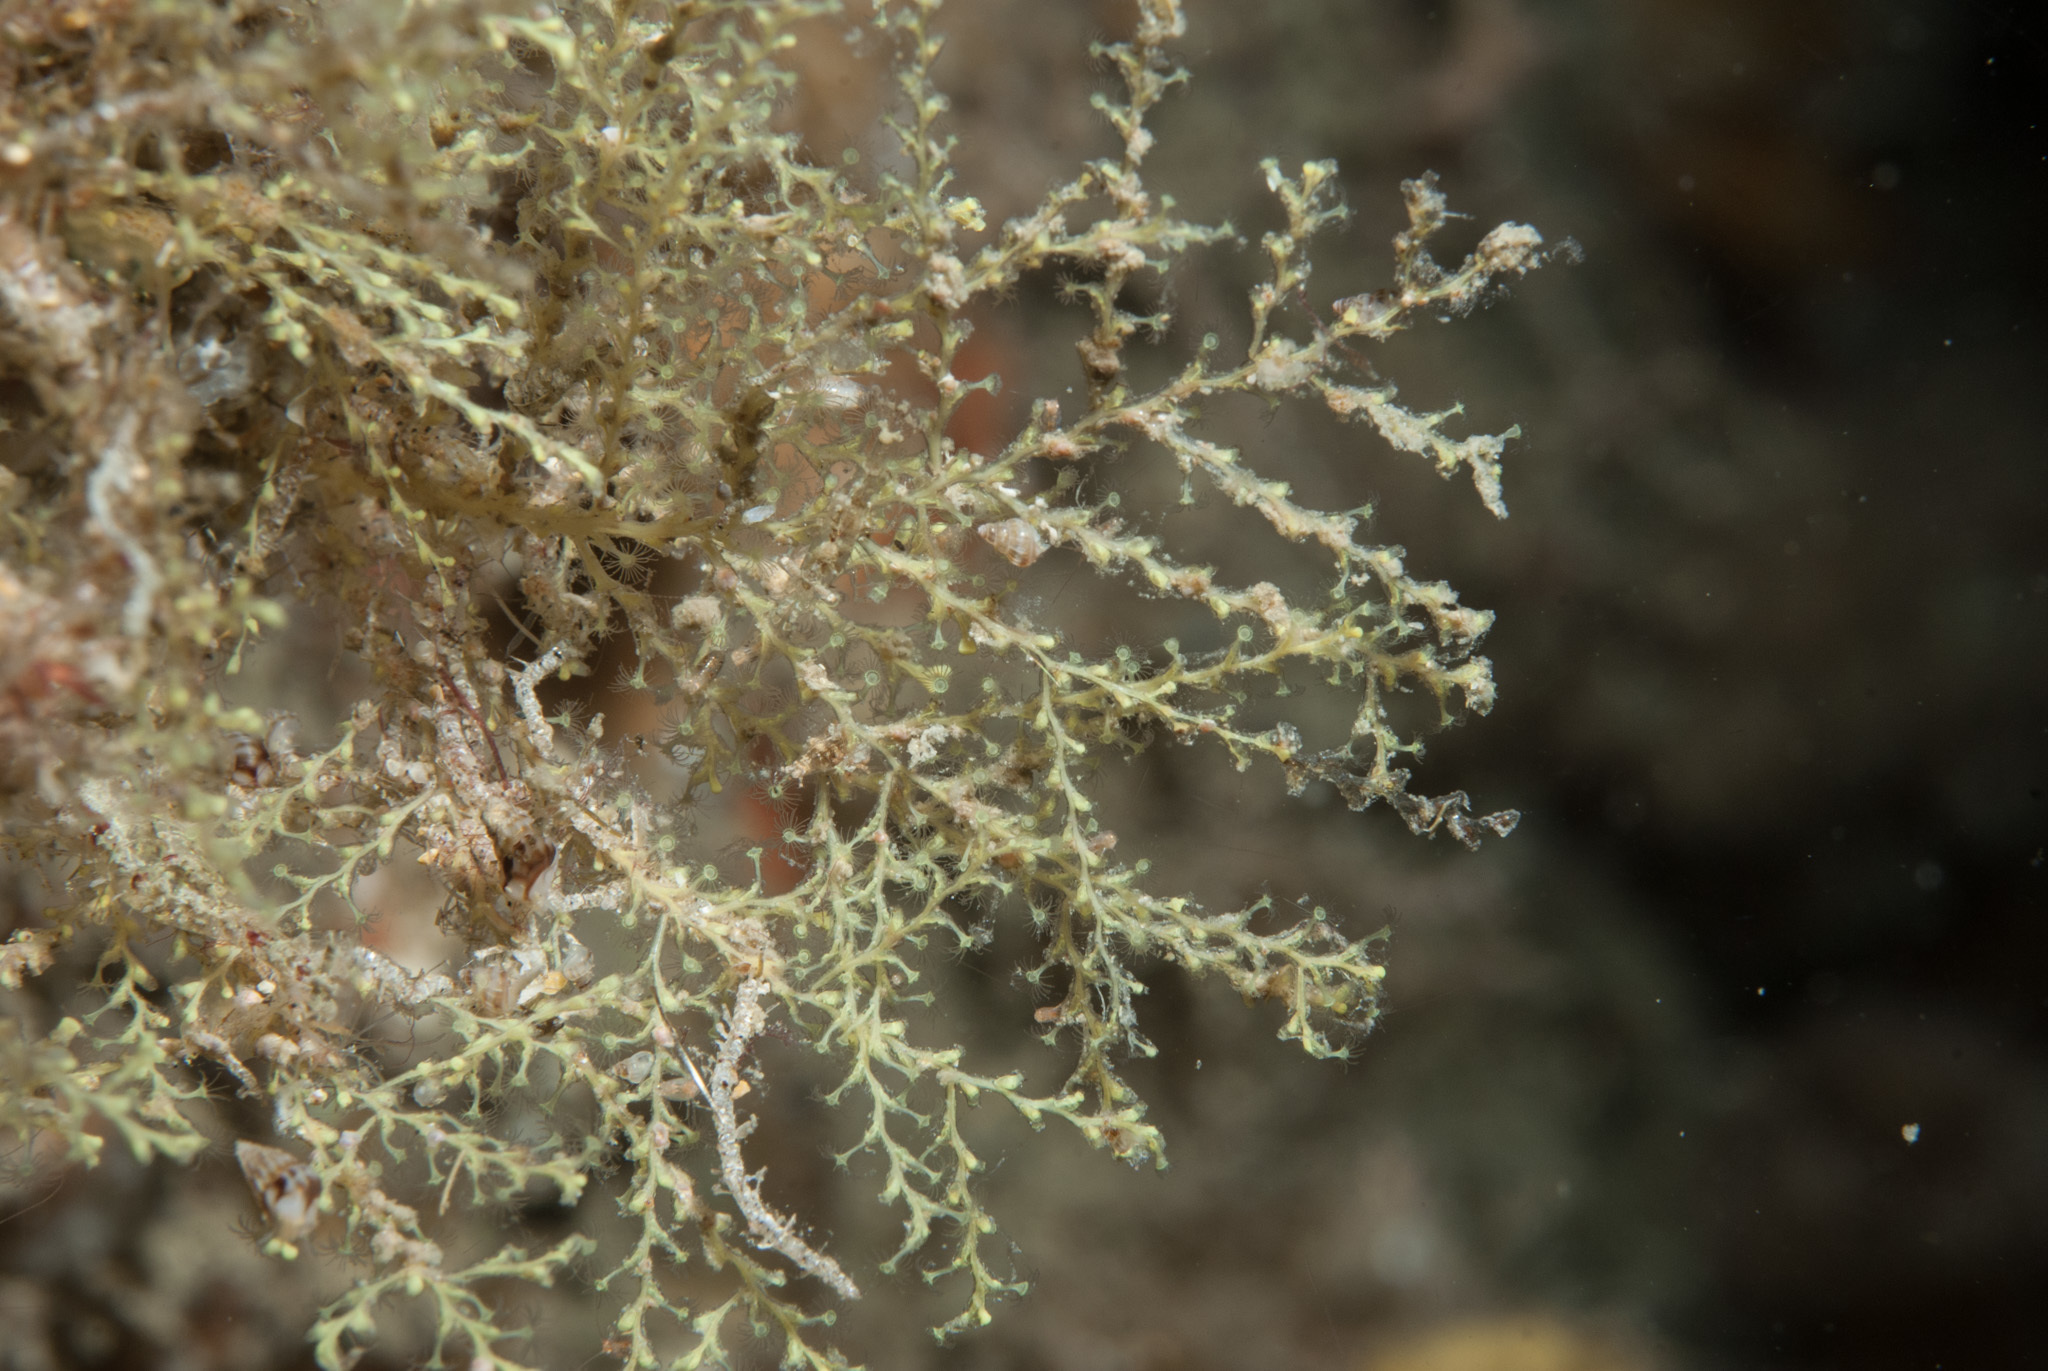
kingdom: Animalia
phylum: Cnidaria
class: Hydrozoa
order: Leptothecata
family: Sertularellidae
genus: Sertularella
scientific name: Sertularella gayi
